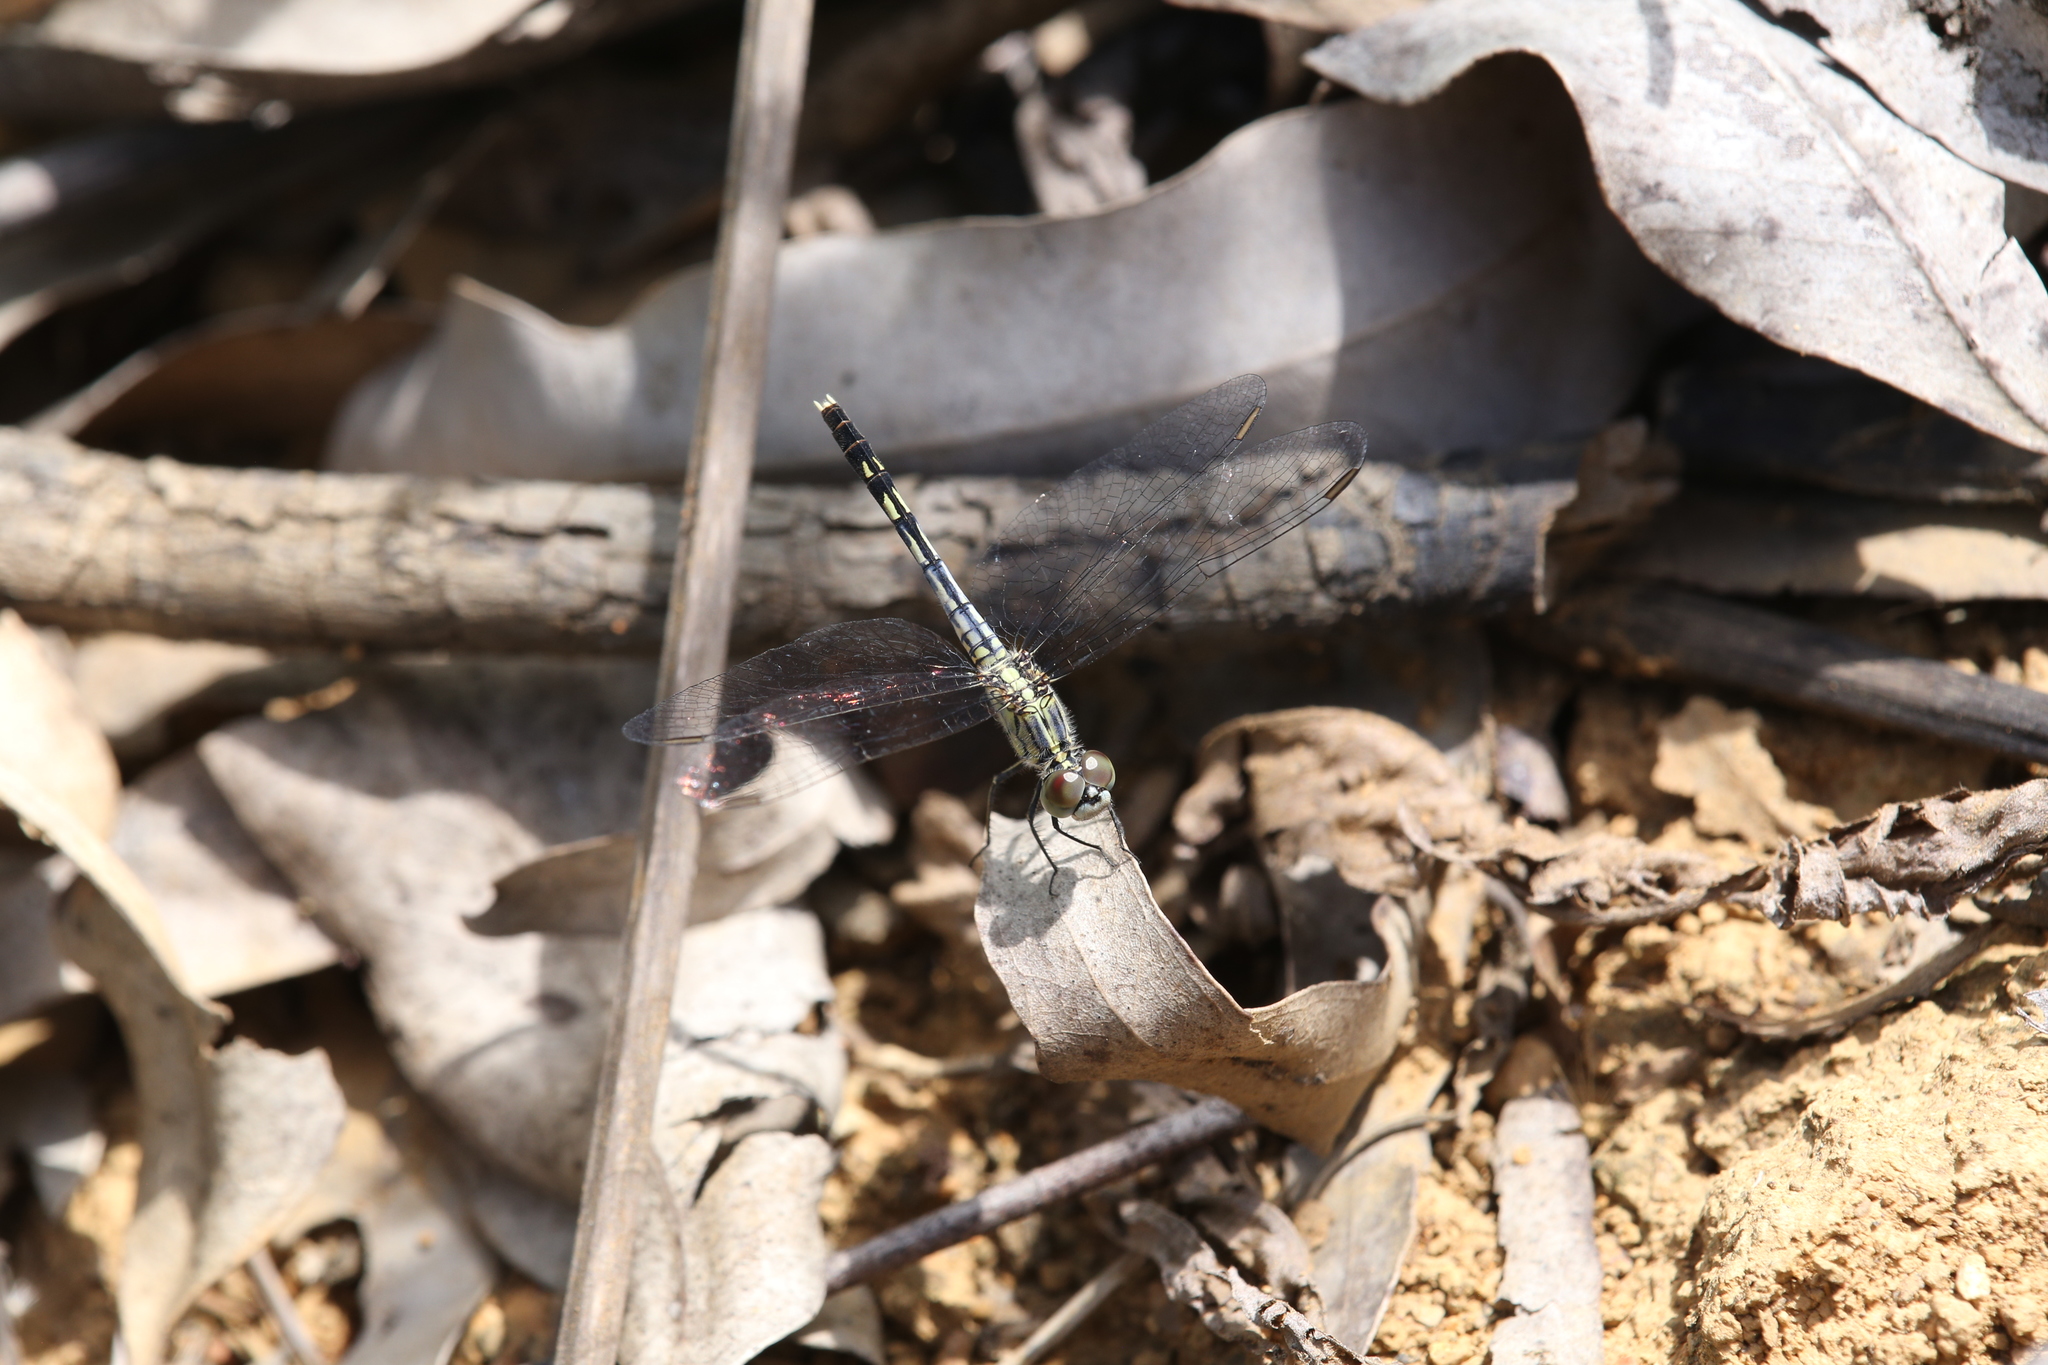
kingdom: Animalia
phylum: Arthropoda
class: Insecta
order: Odonata
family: Libellulidae
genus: Diplacodes
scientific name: Diplacodes trivialis
